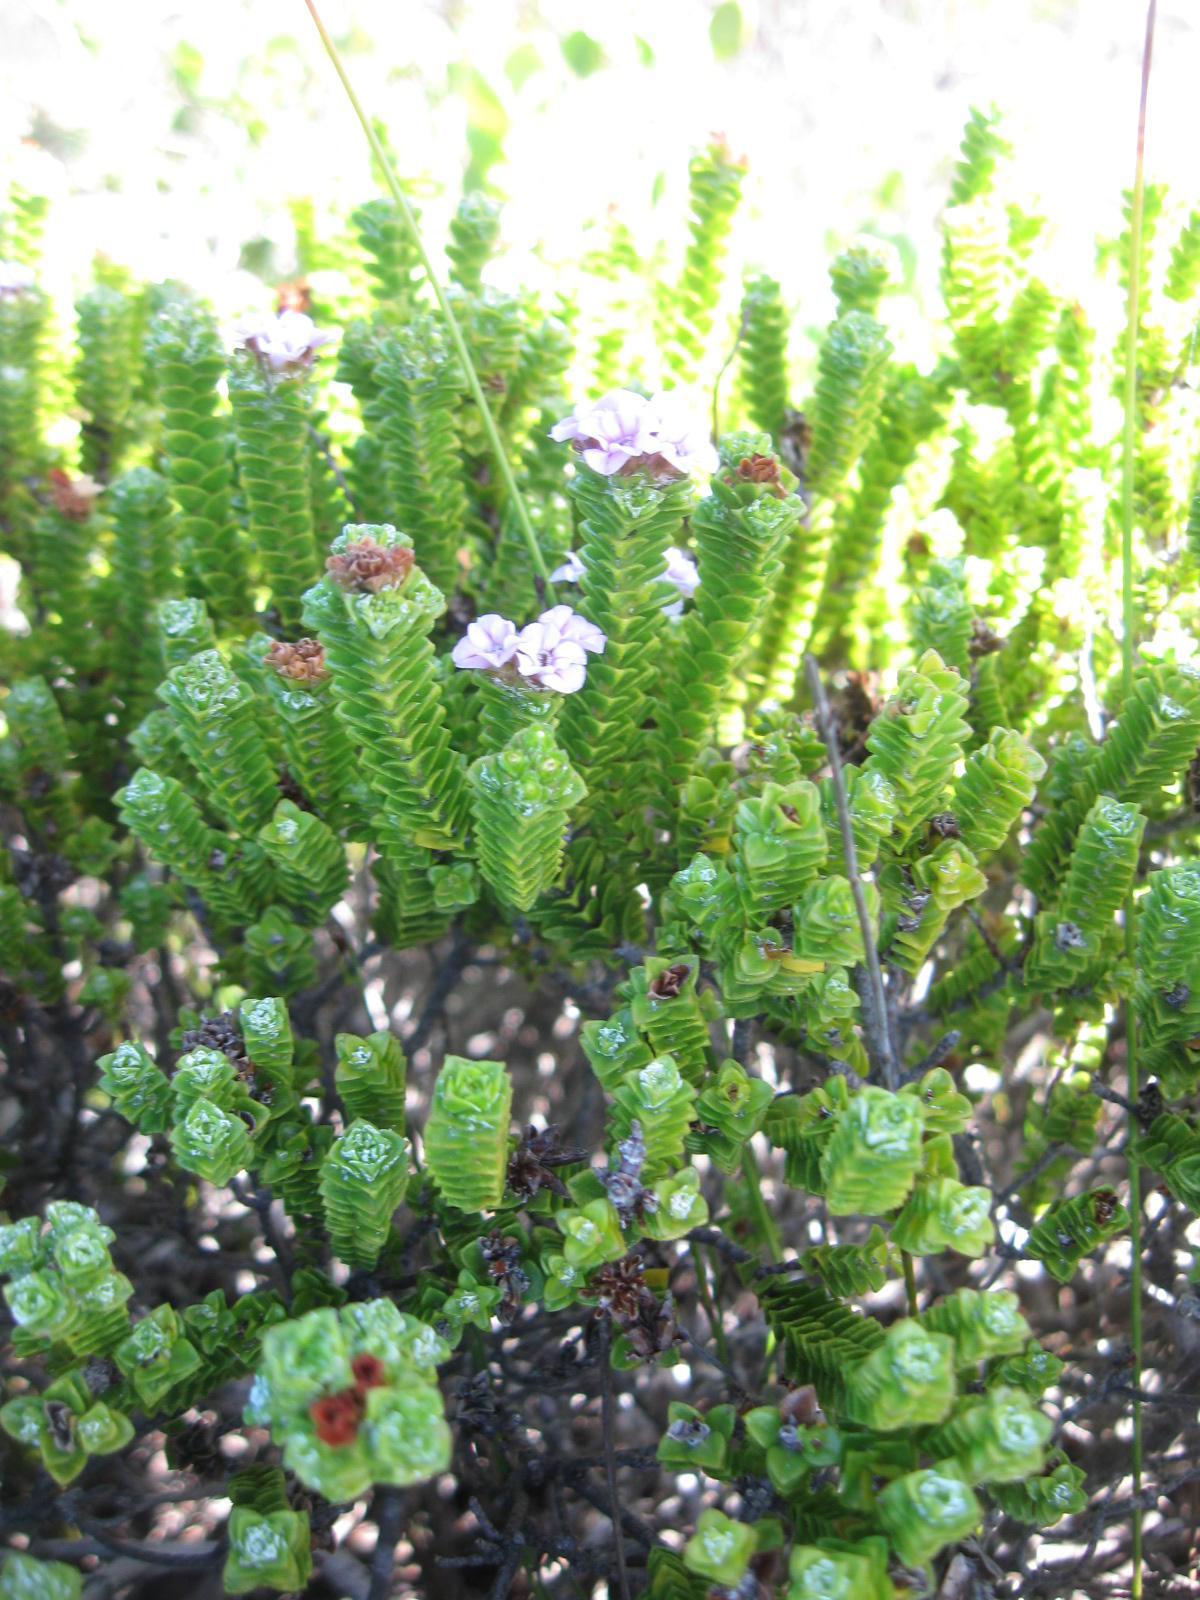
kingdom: Plantae
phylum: Tracheophyta
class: Magnoliopsida
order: Sapindales
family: Rutaceae
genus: Euchaetis
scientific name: Euchaetis meridionalis
